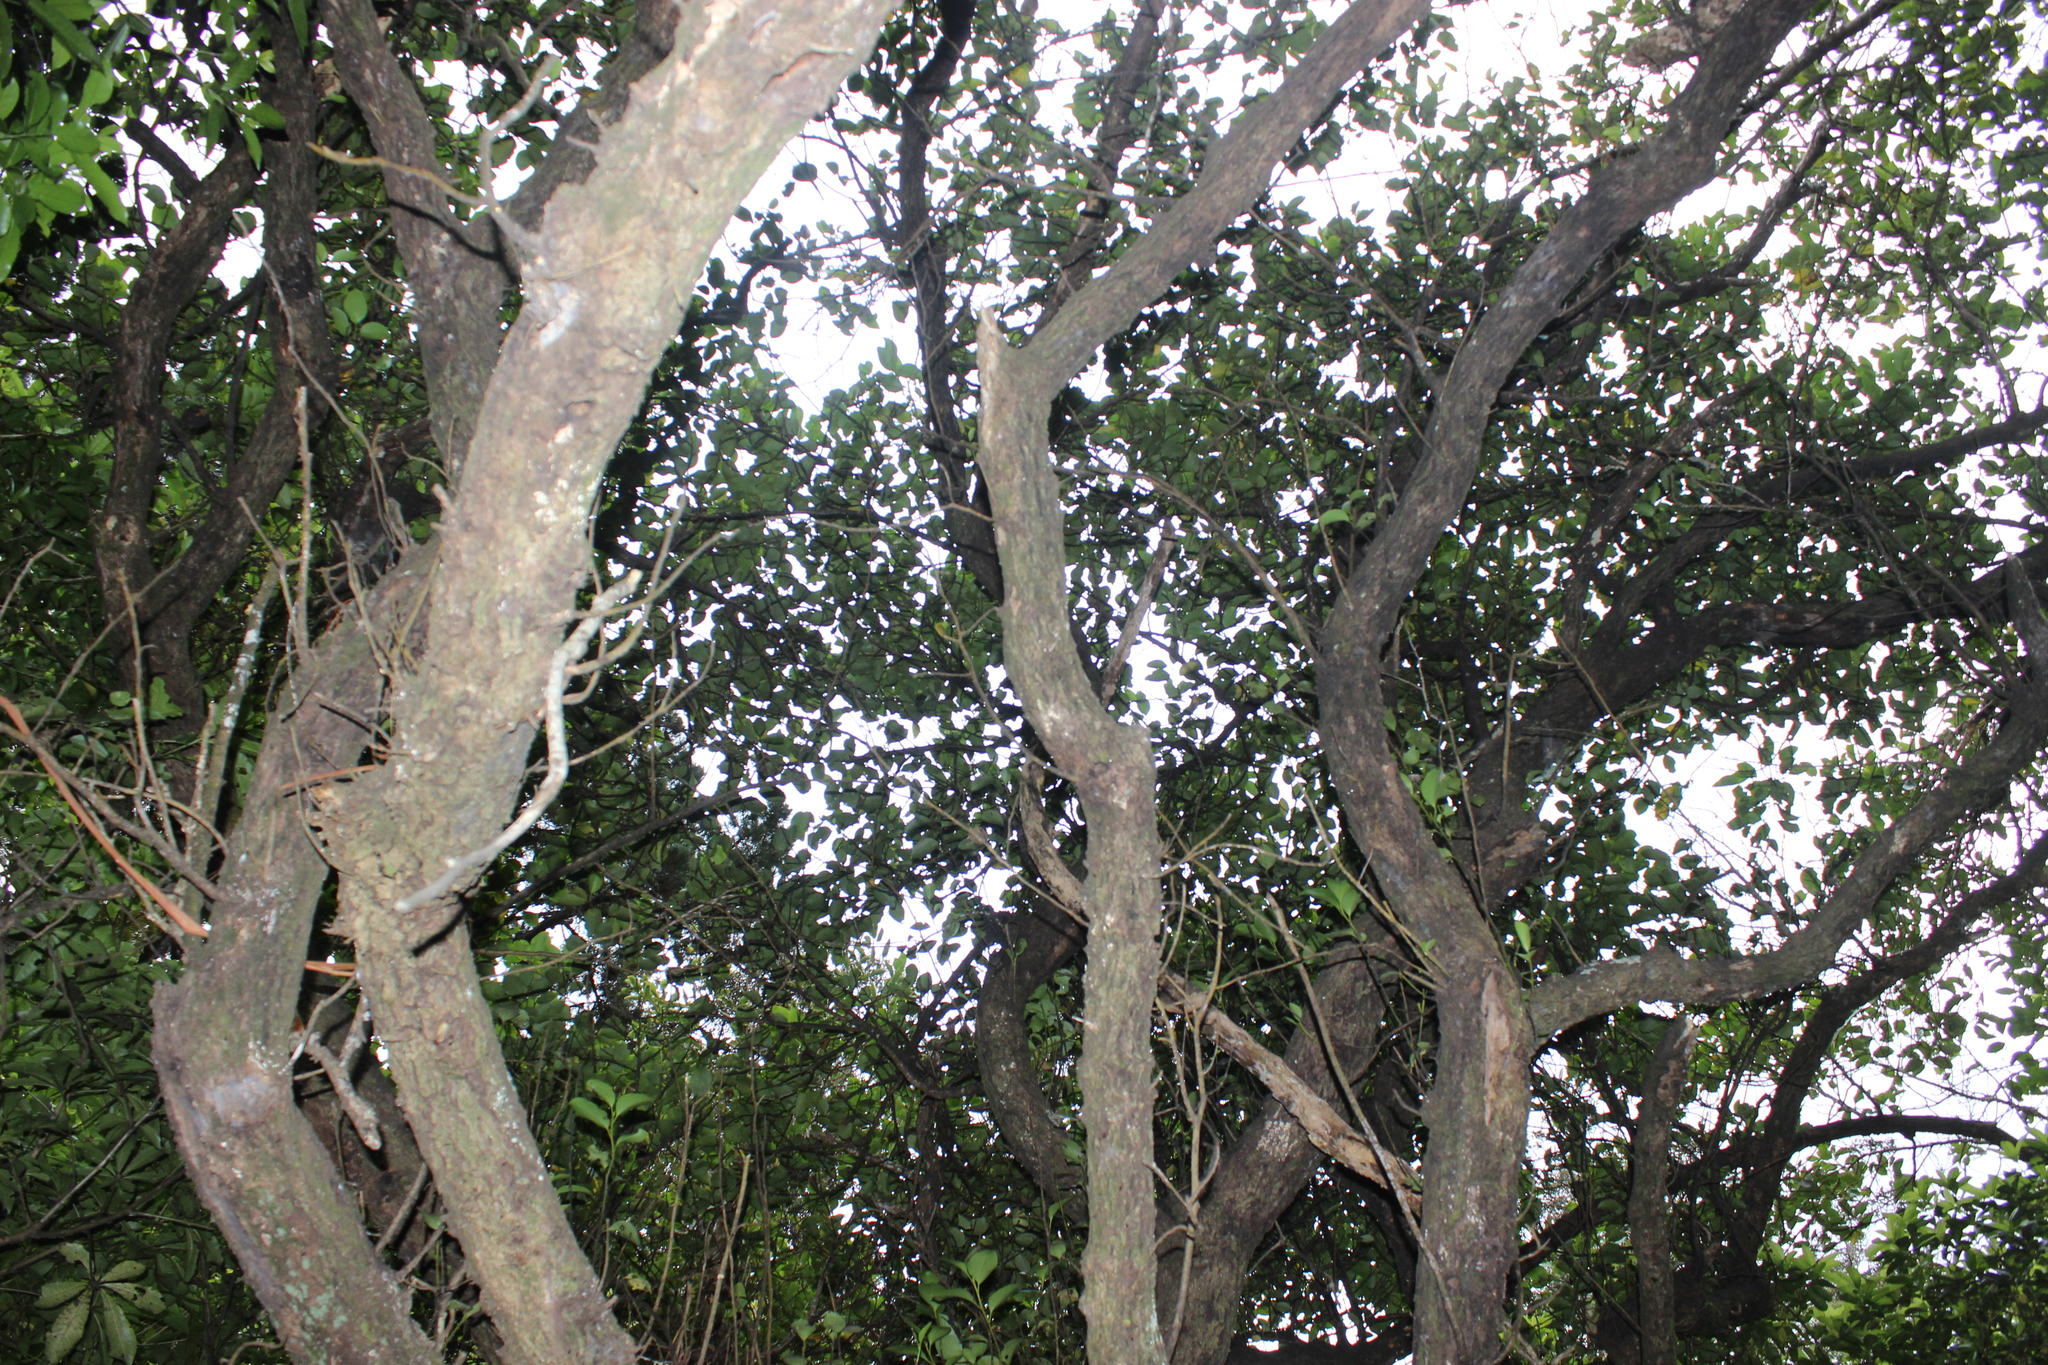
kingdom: Plantae
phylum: Tracheophyta
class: Magnoliopsida
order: Apiales
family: Griseliniaceae
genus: Griselinia
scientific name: Griselinia littoralis
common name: New zealand broadleaf
